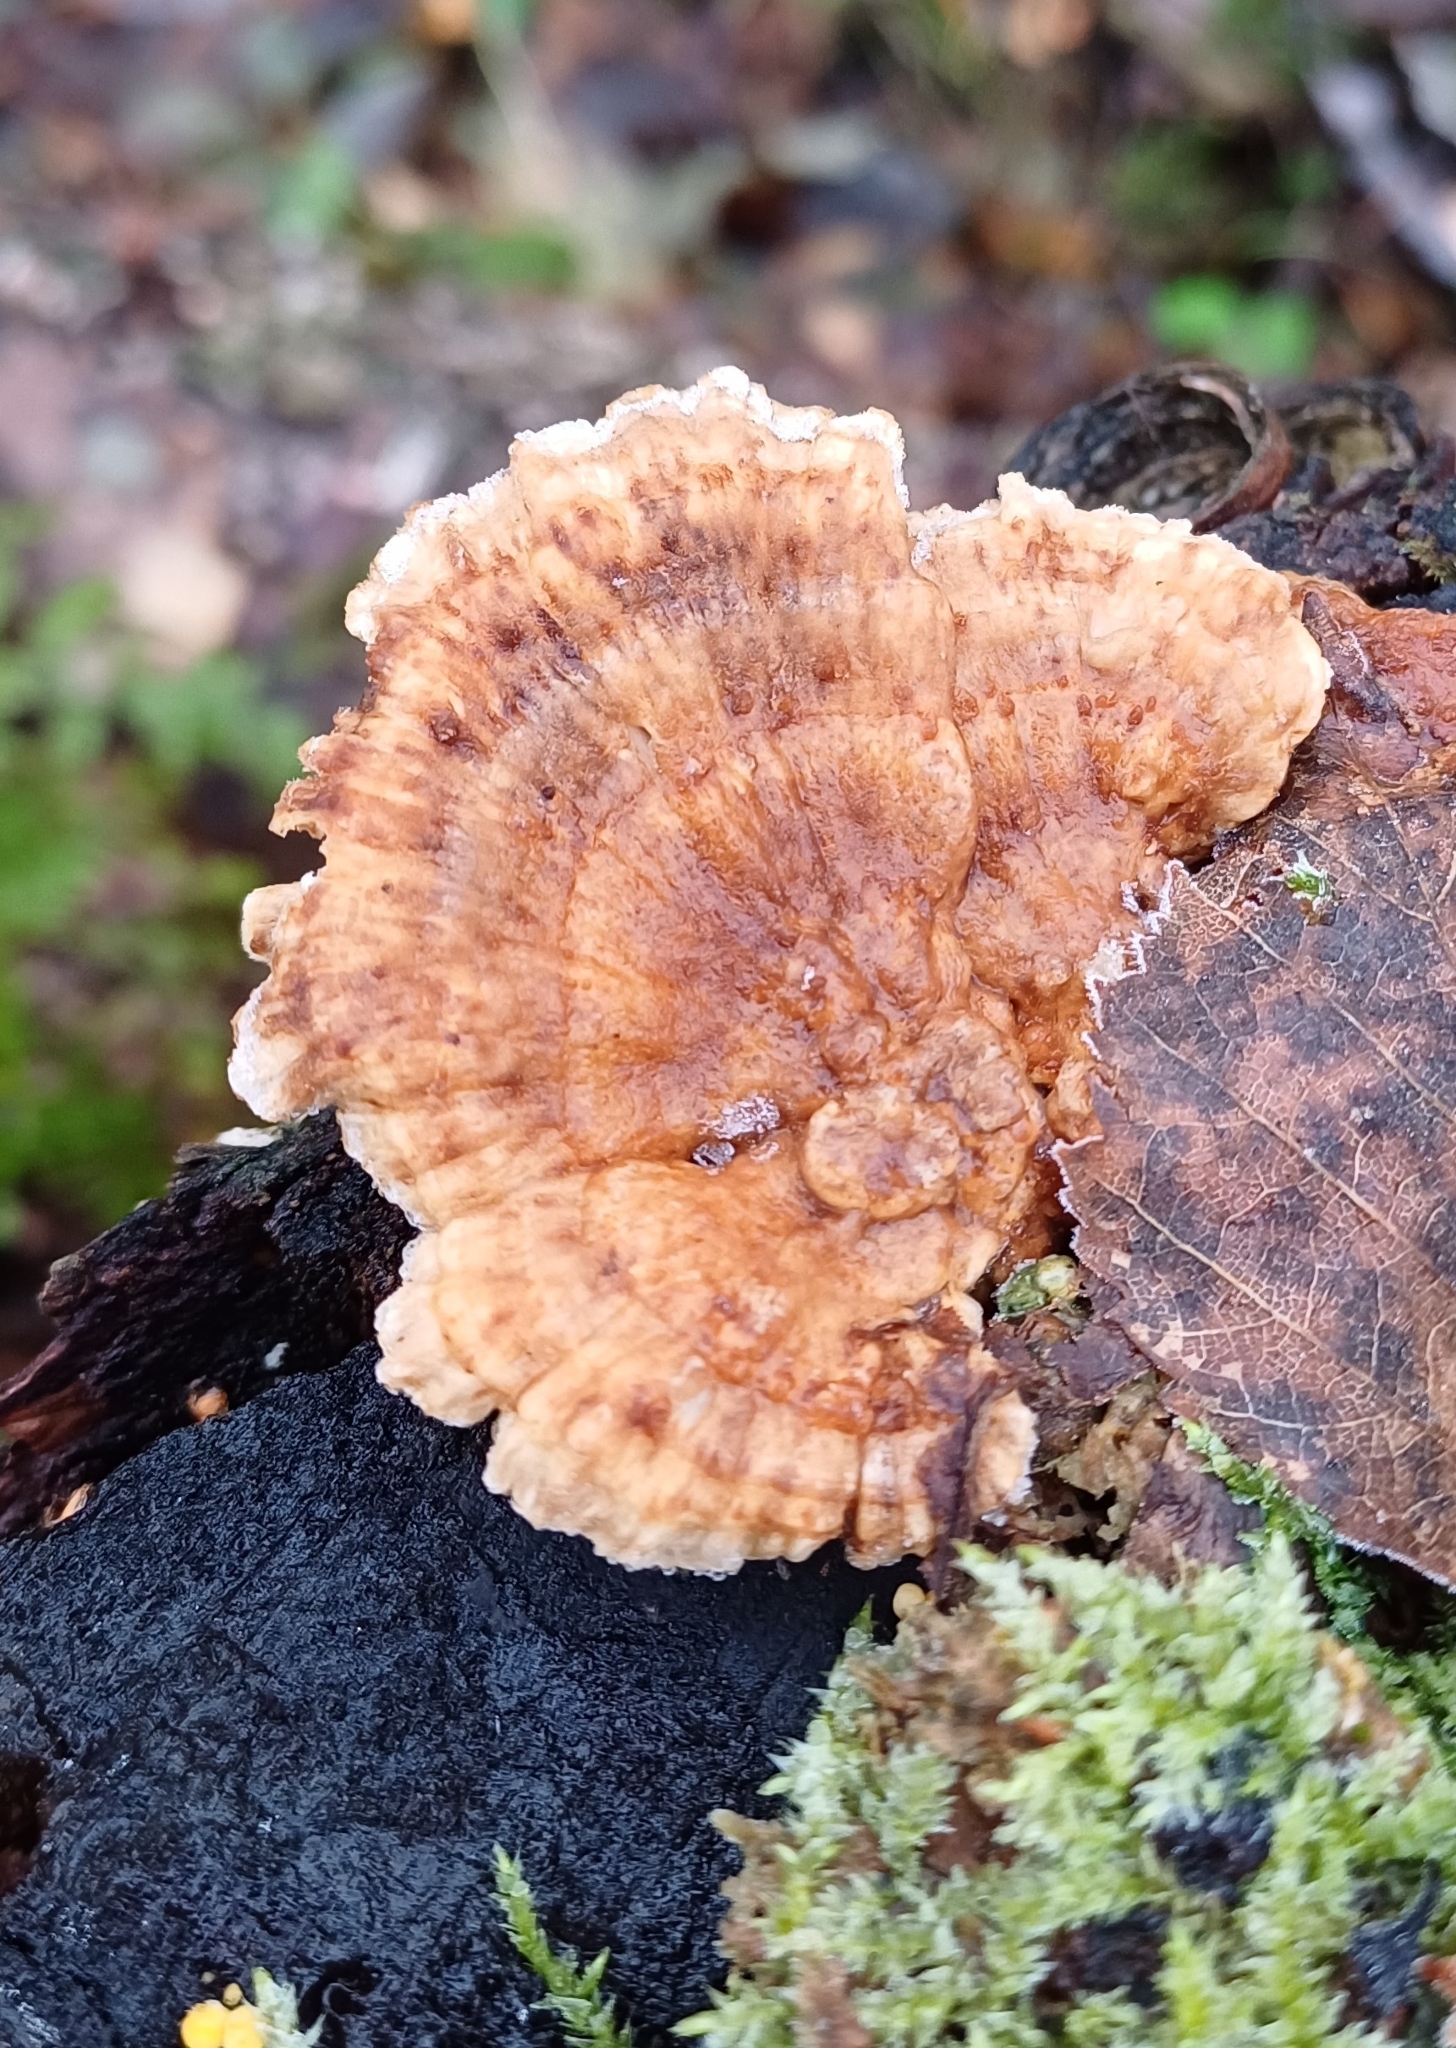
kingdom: Fungi
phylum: Basidiomycota
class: Agaricomycetes
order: Polyporales
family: Polyporaceae
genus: Trametes
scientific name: Trametes ochracea
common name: Ochre bracket
